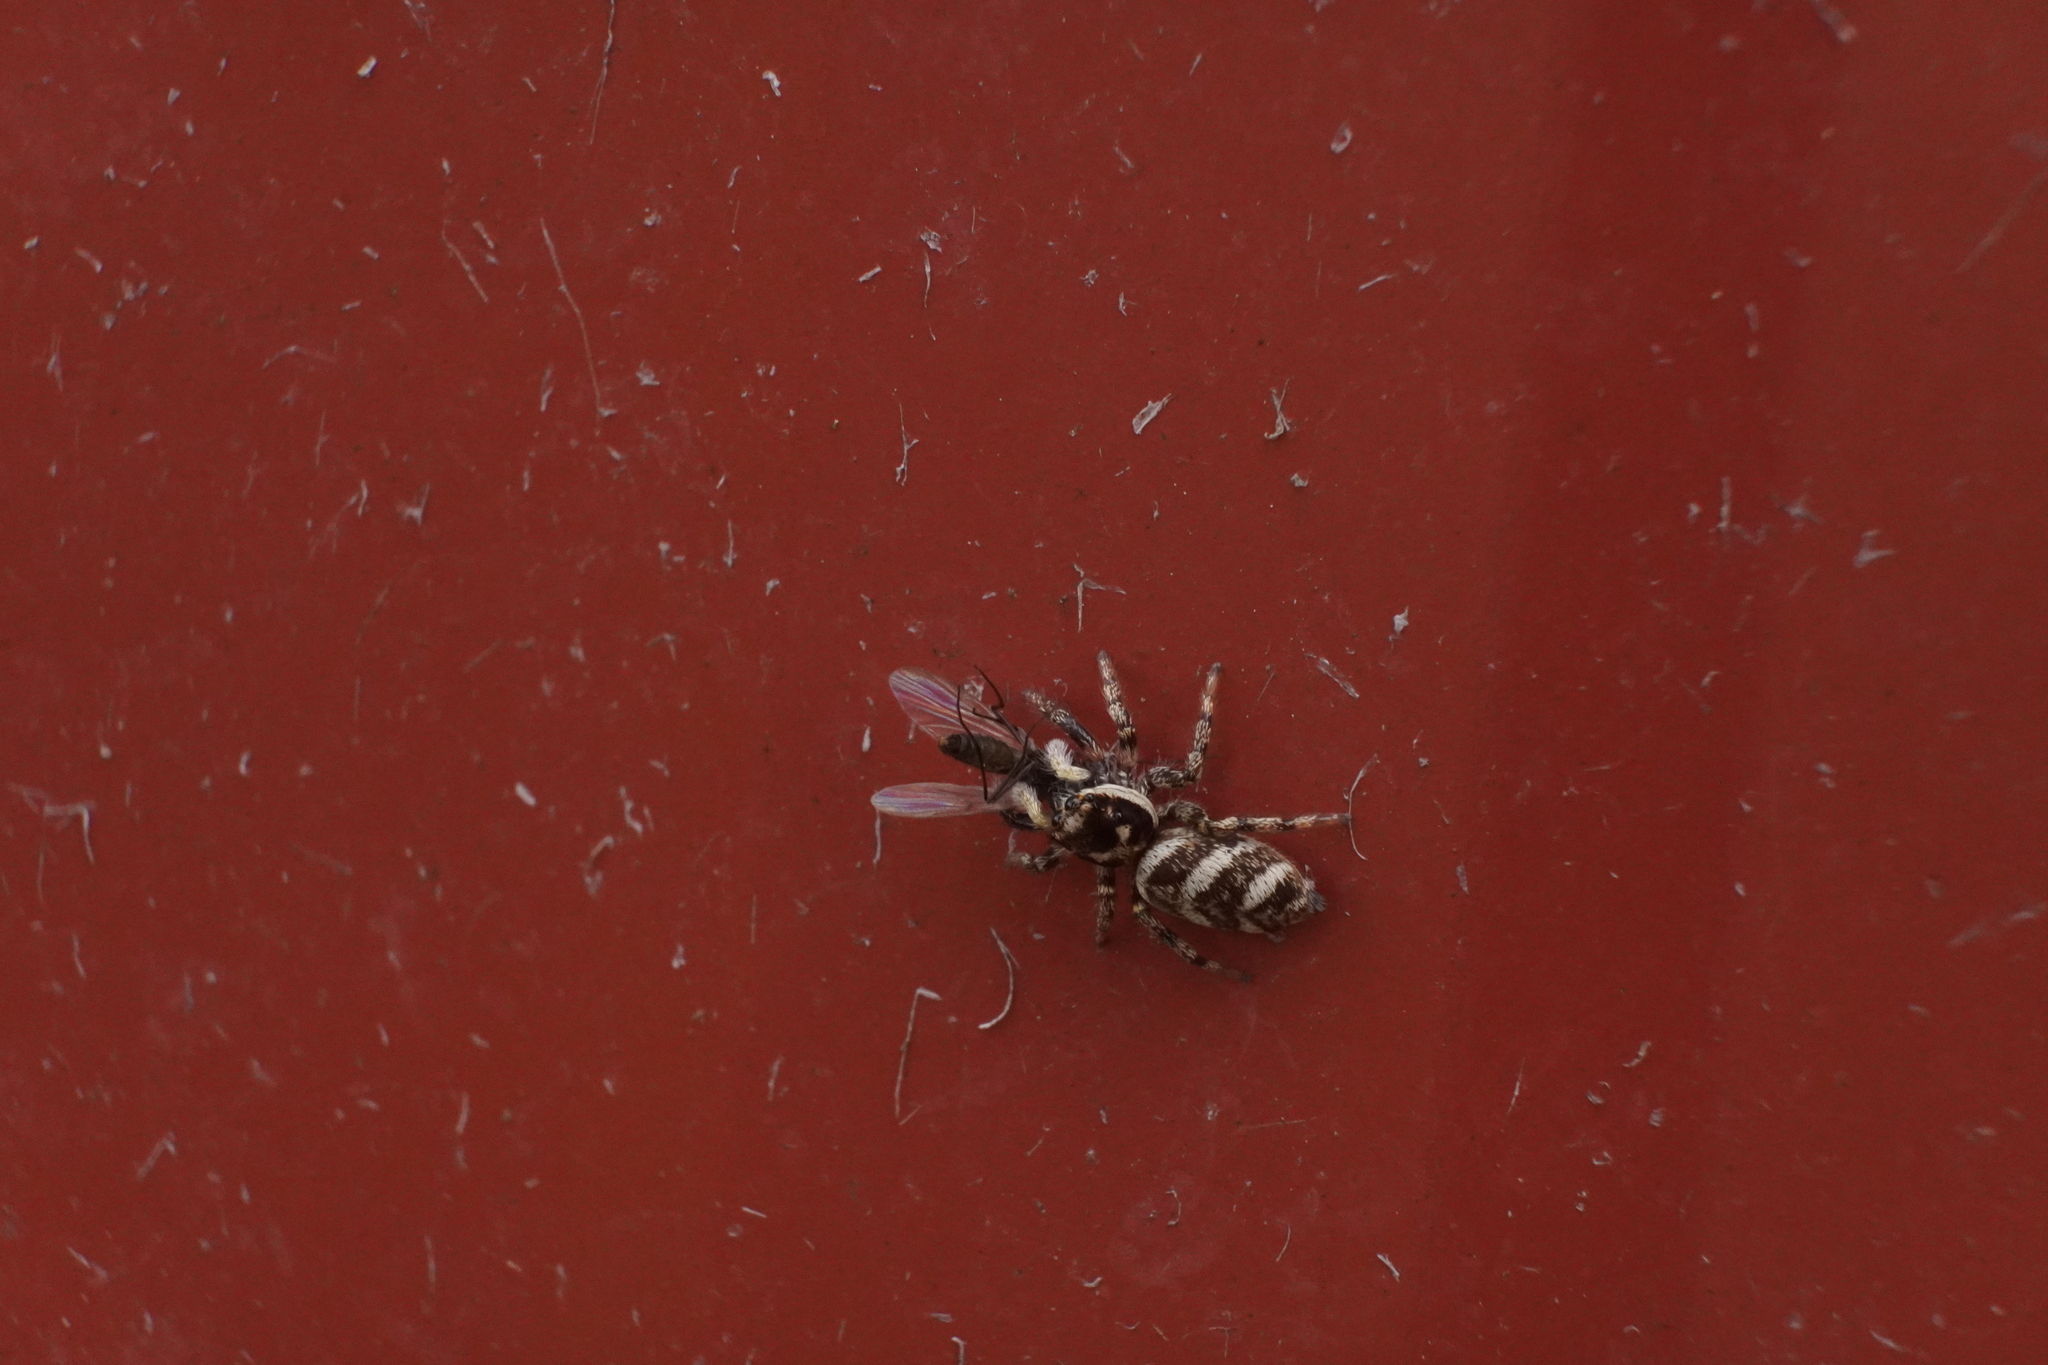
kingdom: Animalia
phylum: Arthropoda
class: Arachnida
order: Araneae
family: Salticidae
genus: Salticus
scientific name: Salticus scenicus
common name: Zebra jumper
